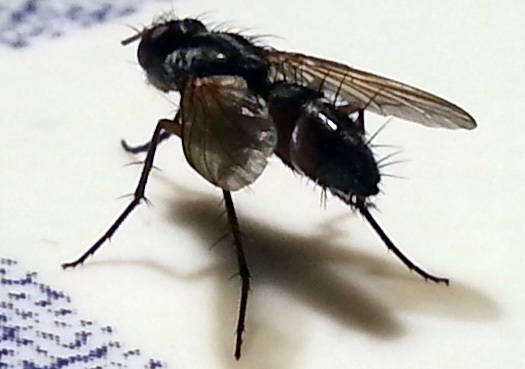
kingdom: Animalia
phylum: Arthropoda
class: Insecta
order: Diptera
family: Tachinidae
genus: Mintho
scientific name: Mintho rufiventris
